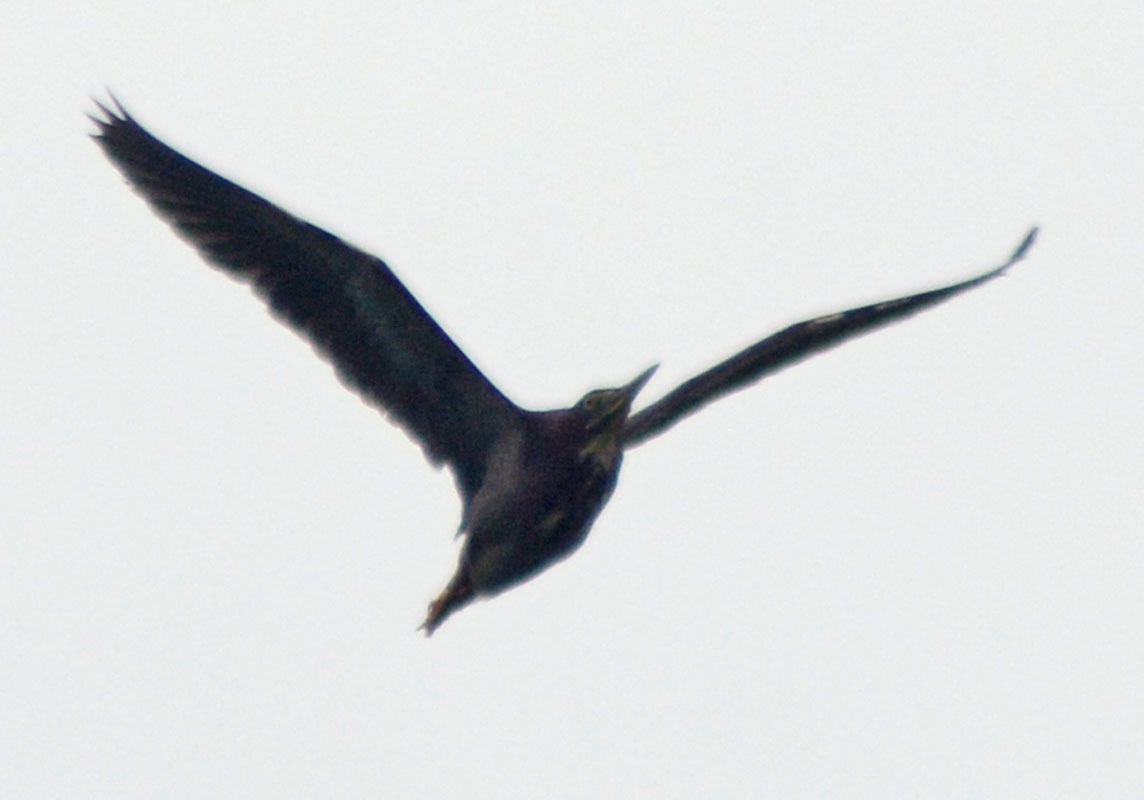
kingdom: Animalia
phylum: Chordata
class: Aves
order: Pelecaniformes
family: Ardeidae
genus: Butorides
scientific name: Butorides virescens
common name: Green heron
